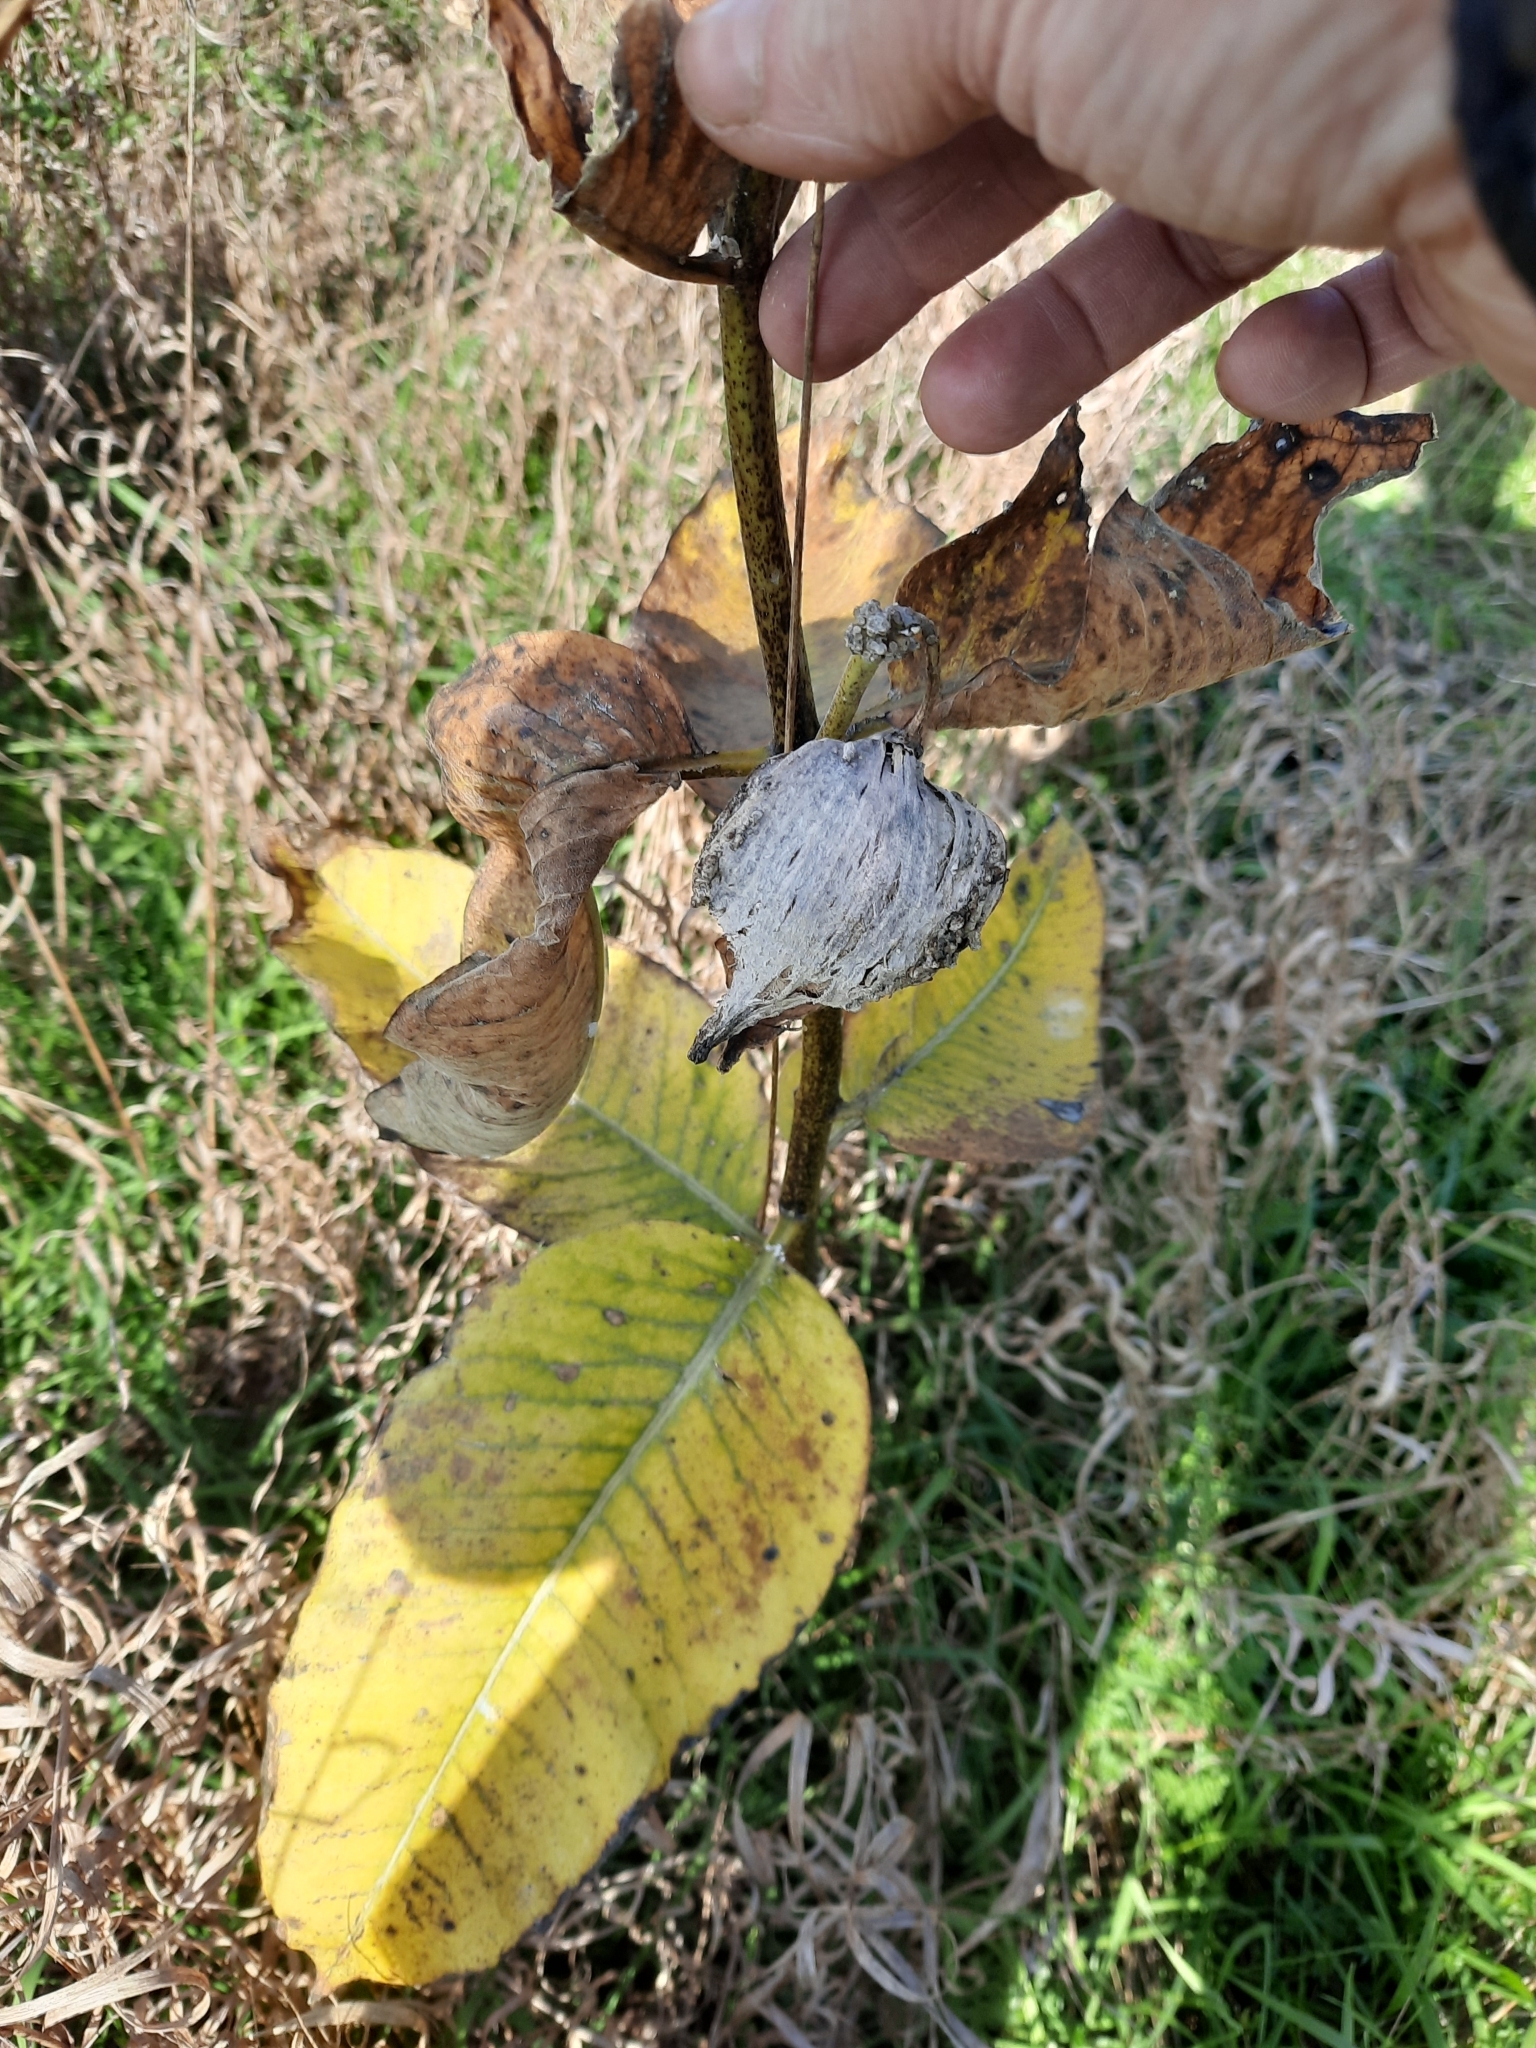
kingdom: Plantae
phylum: Tracheophyta
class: Magnoliopsida
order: Gentianales
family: Apocynaceae
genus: Asclepias
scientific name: Asclepias syriaca
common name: Common milkweed
